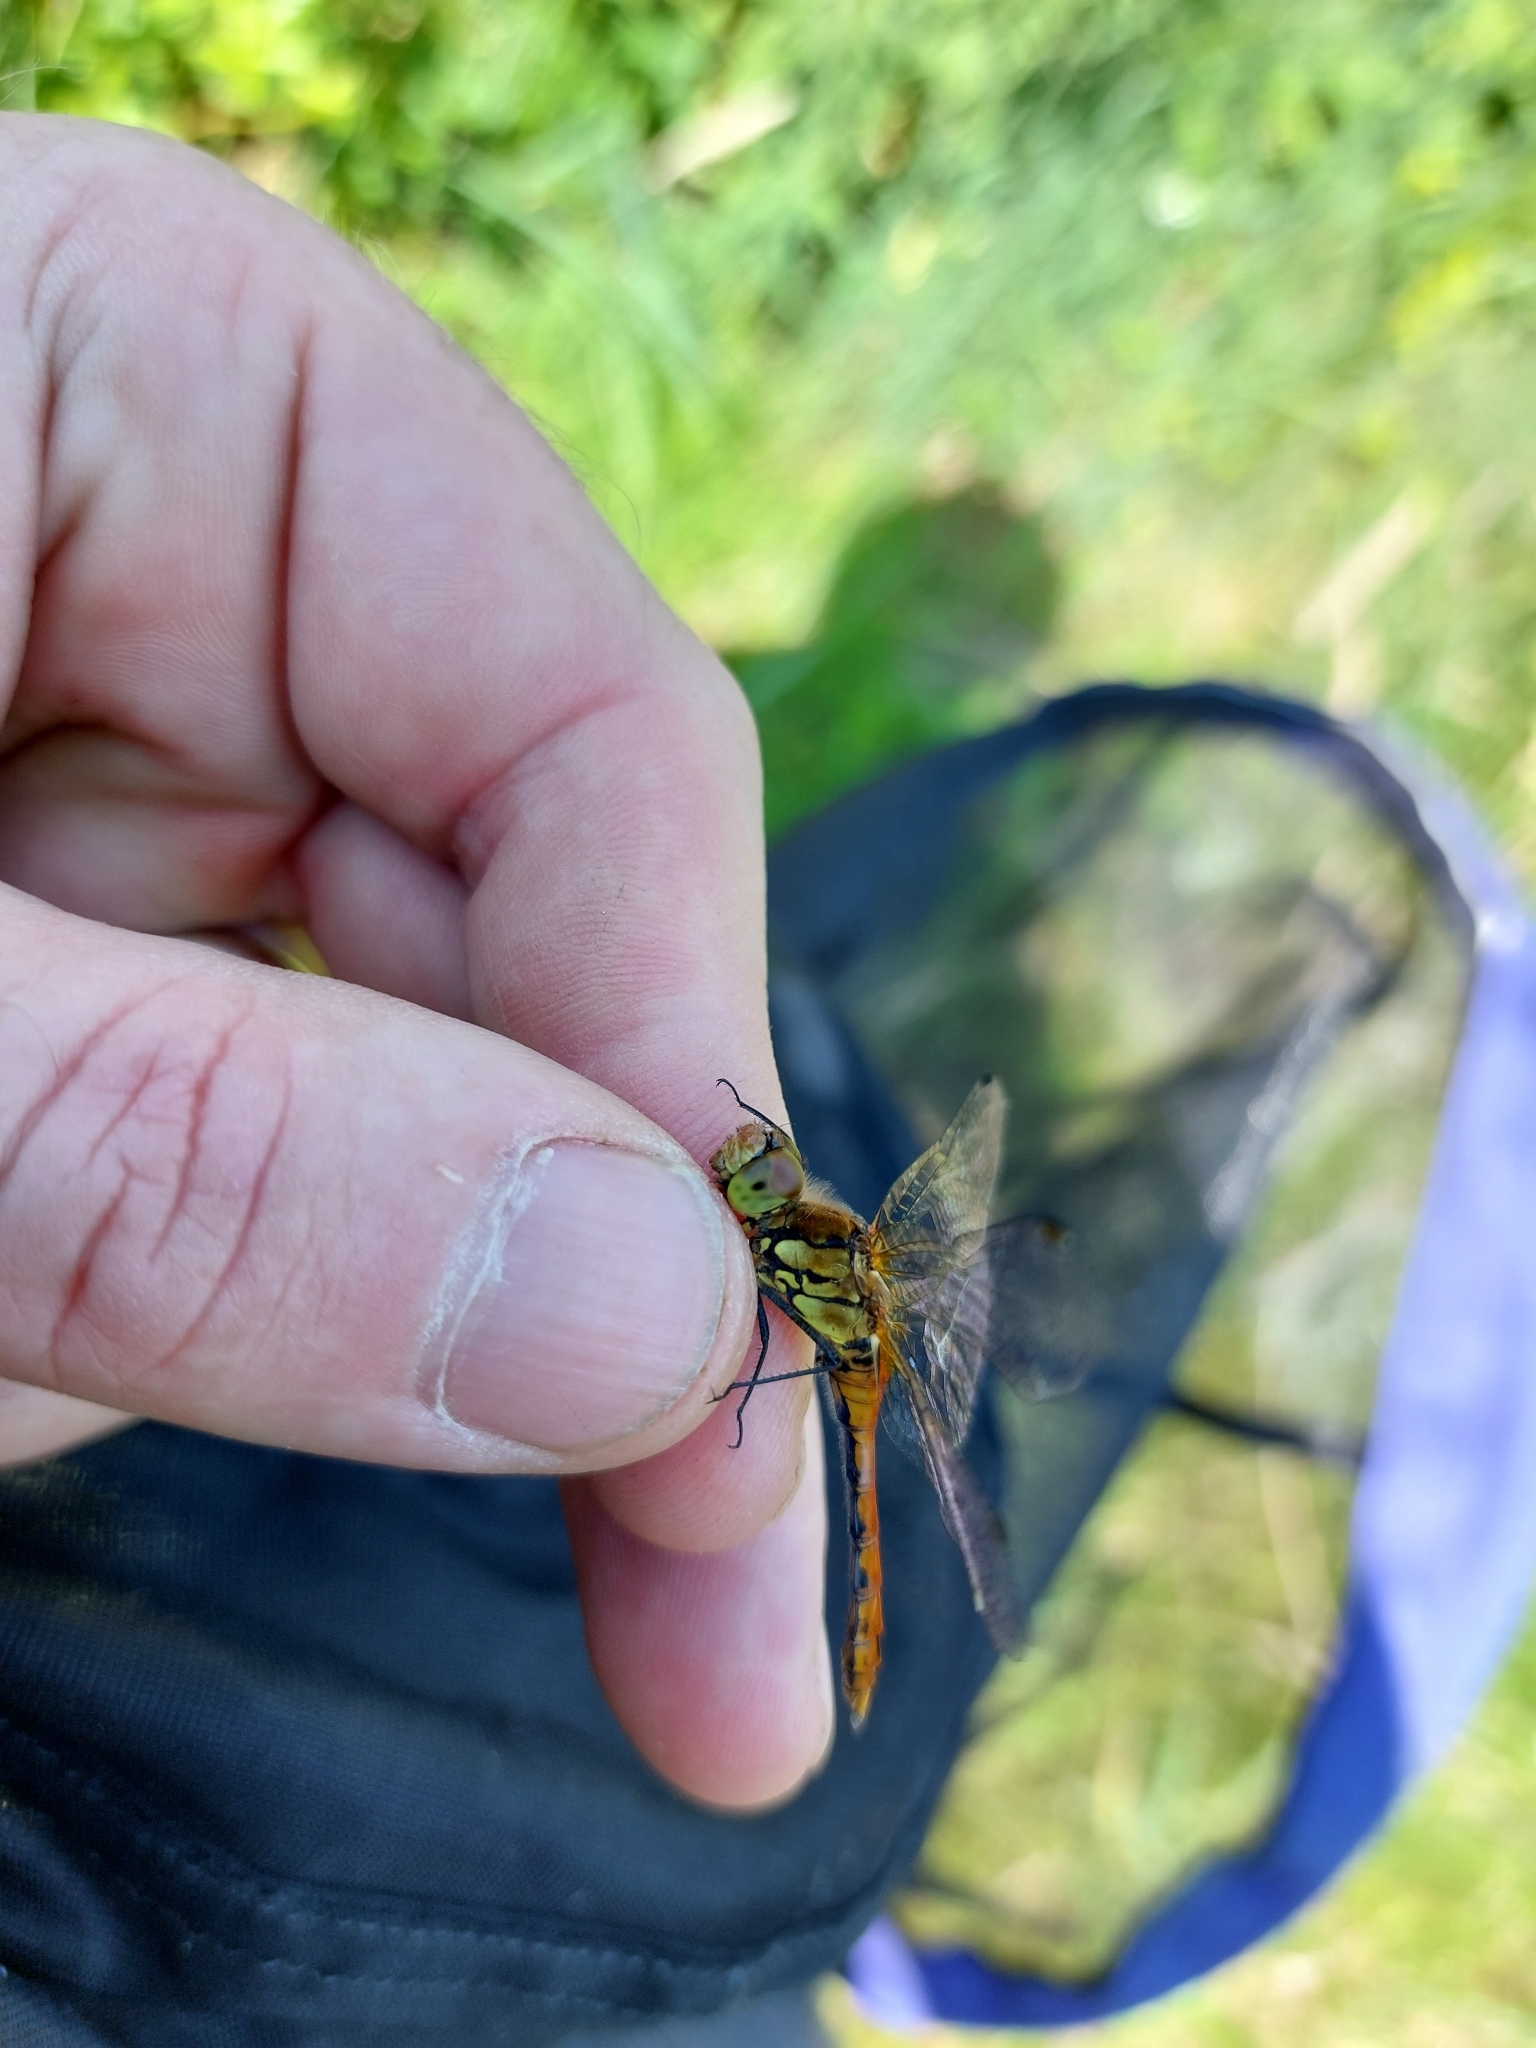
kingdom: Animalia
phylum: Arthropoda
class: Insecta
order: Odonata
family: Libellulidae
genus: Sympetrum
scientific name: Sympetrum sanguineum
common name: Ruddy darter
